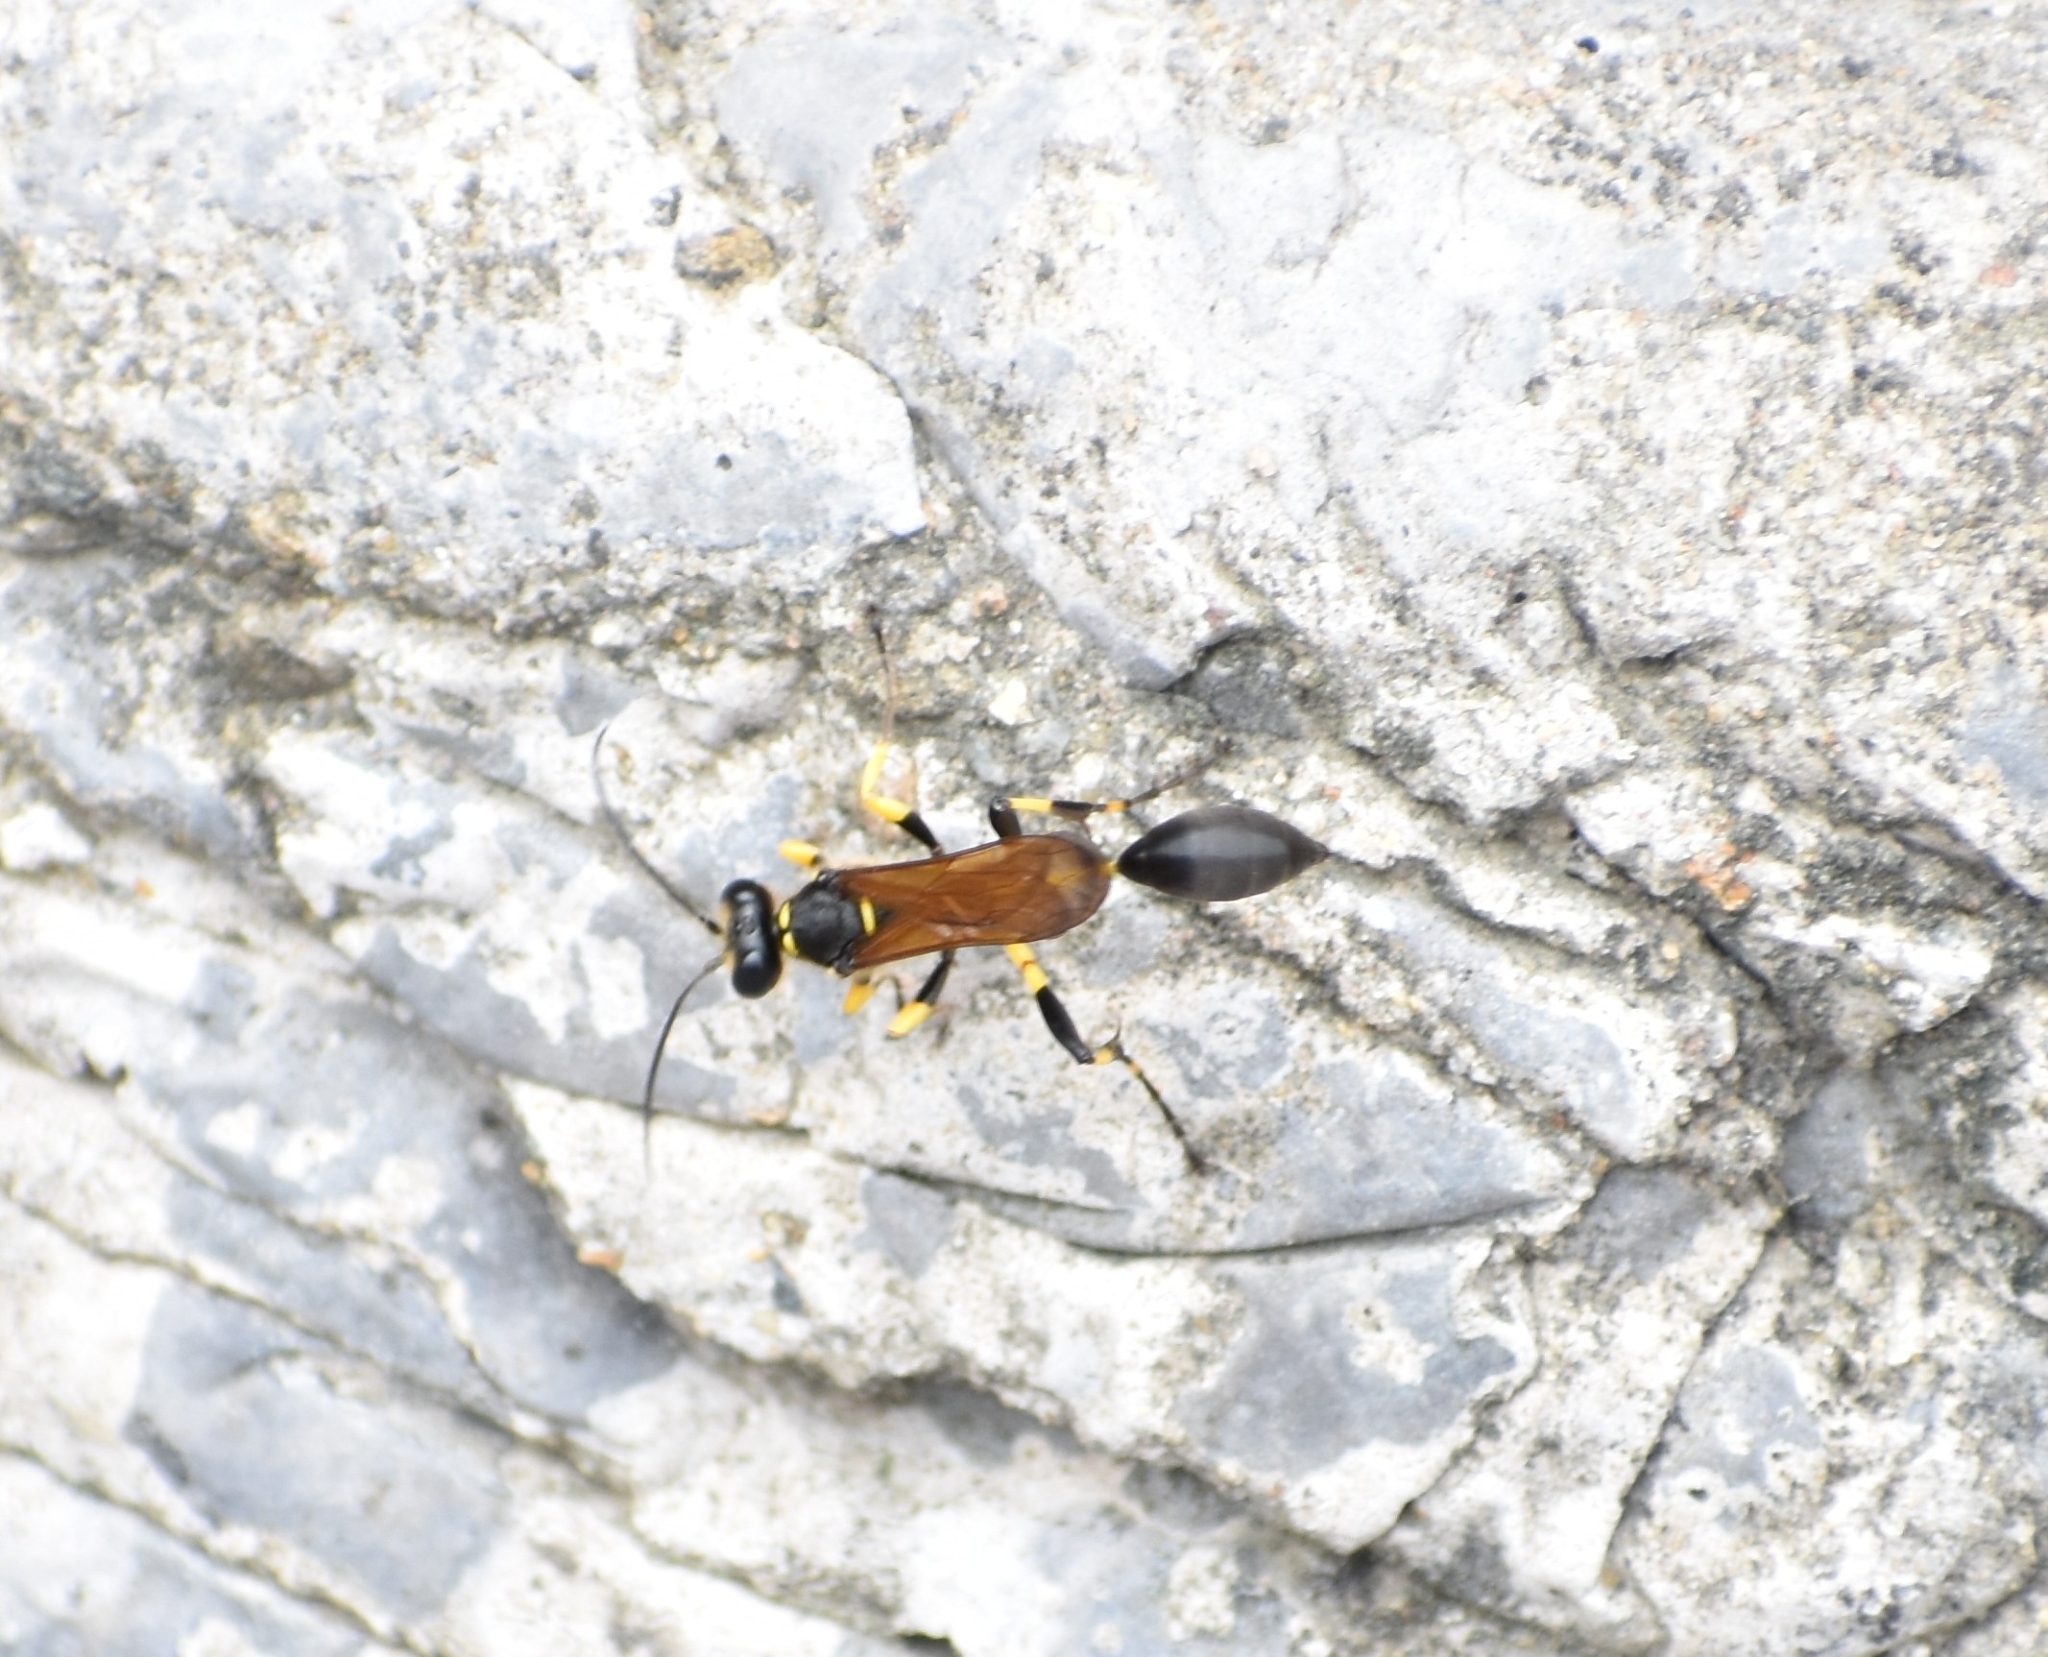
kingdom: Animalia
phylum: Arthropoda
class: Insecta
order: Hymenoptera
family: Sphecidae
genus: Sceliphron
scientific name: Sceliphron madraspatanum
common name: Mud dauber
